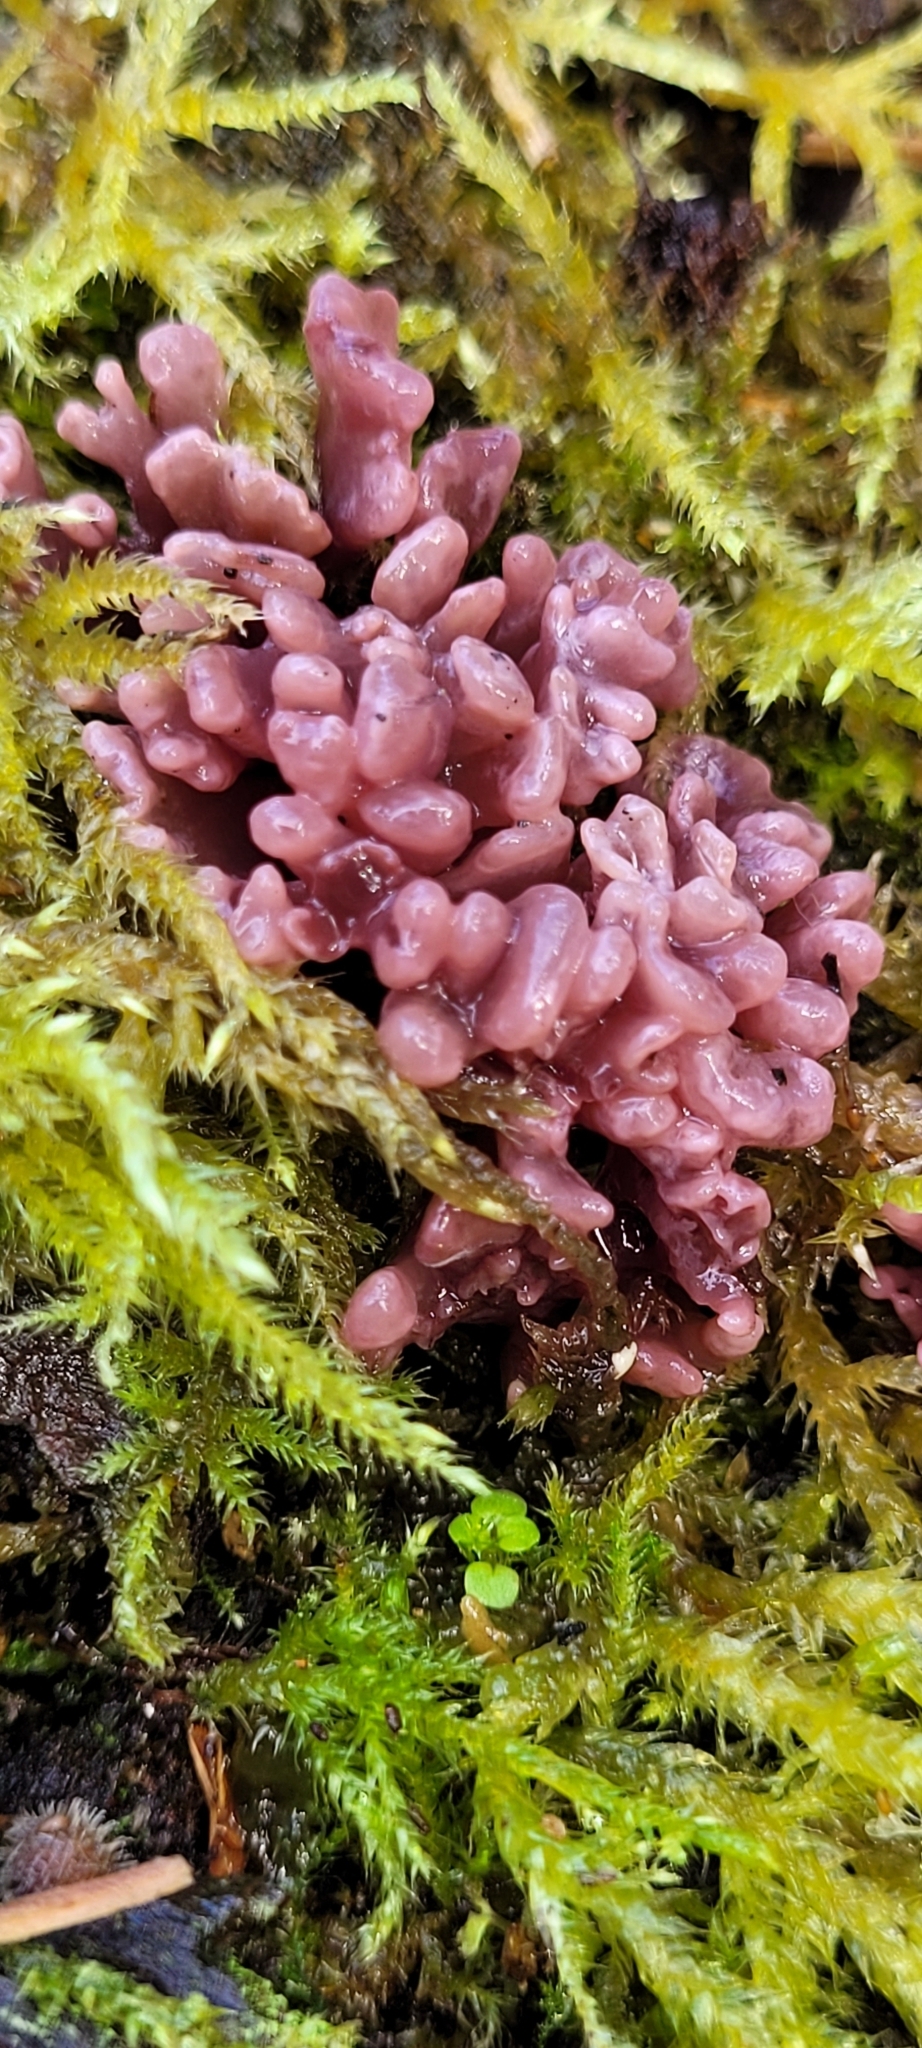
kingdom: Fungi
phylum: Ascomycota
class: Leotiomycetes
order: Helotiales
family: Gelatinodiscaceae
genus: Ascocoryne
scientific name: Ascocoryne sarcoides
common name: Purple jellydisc
